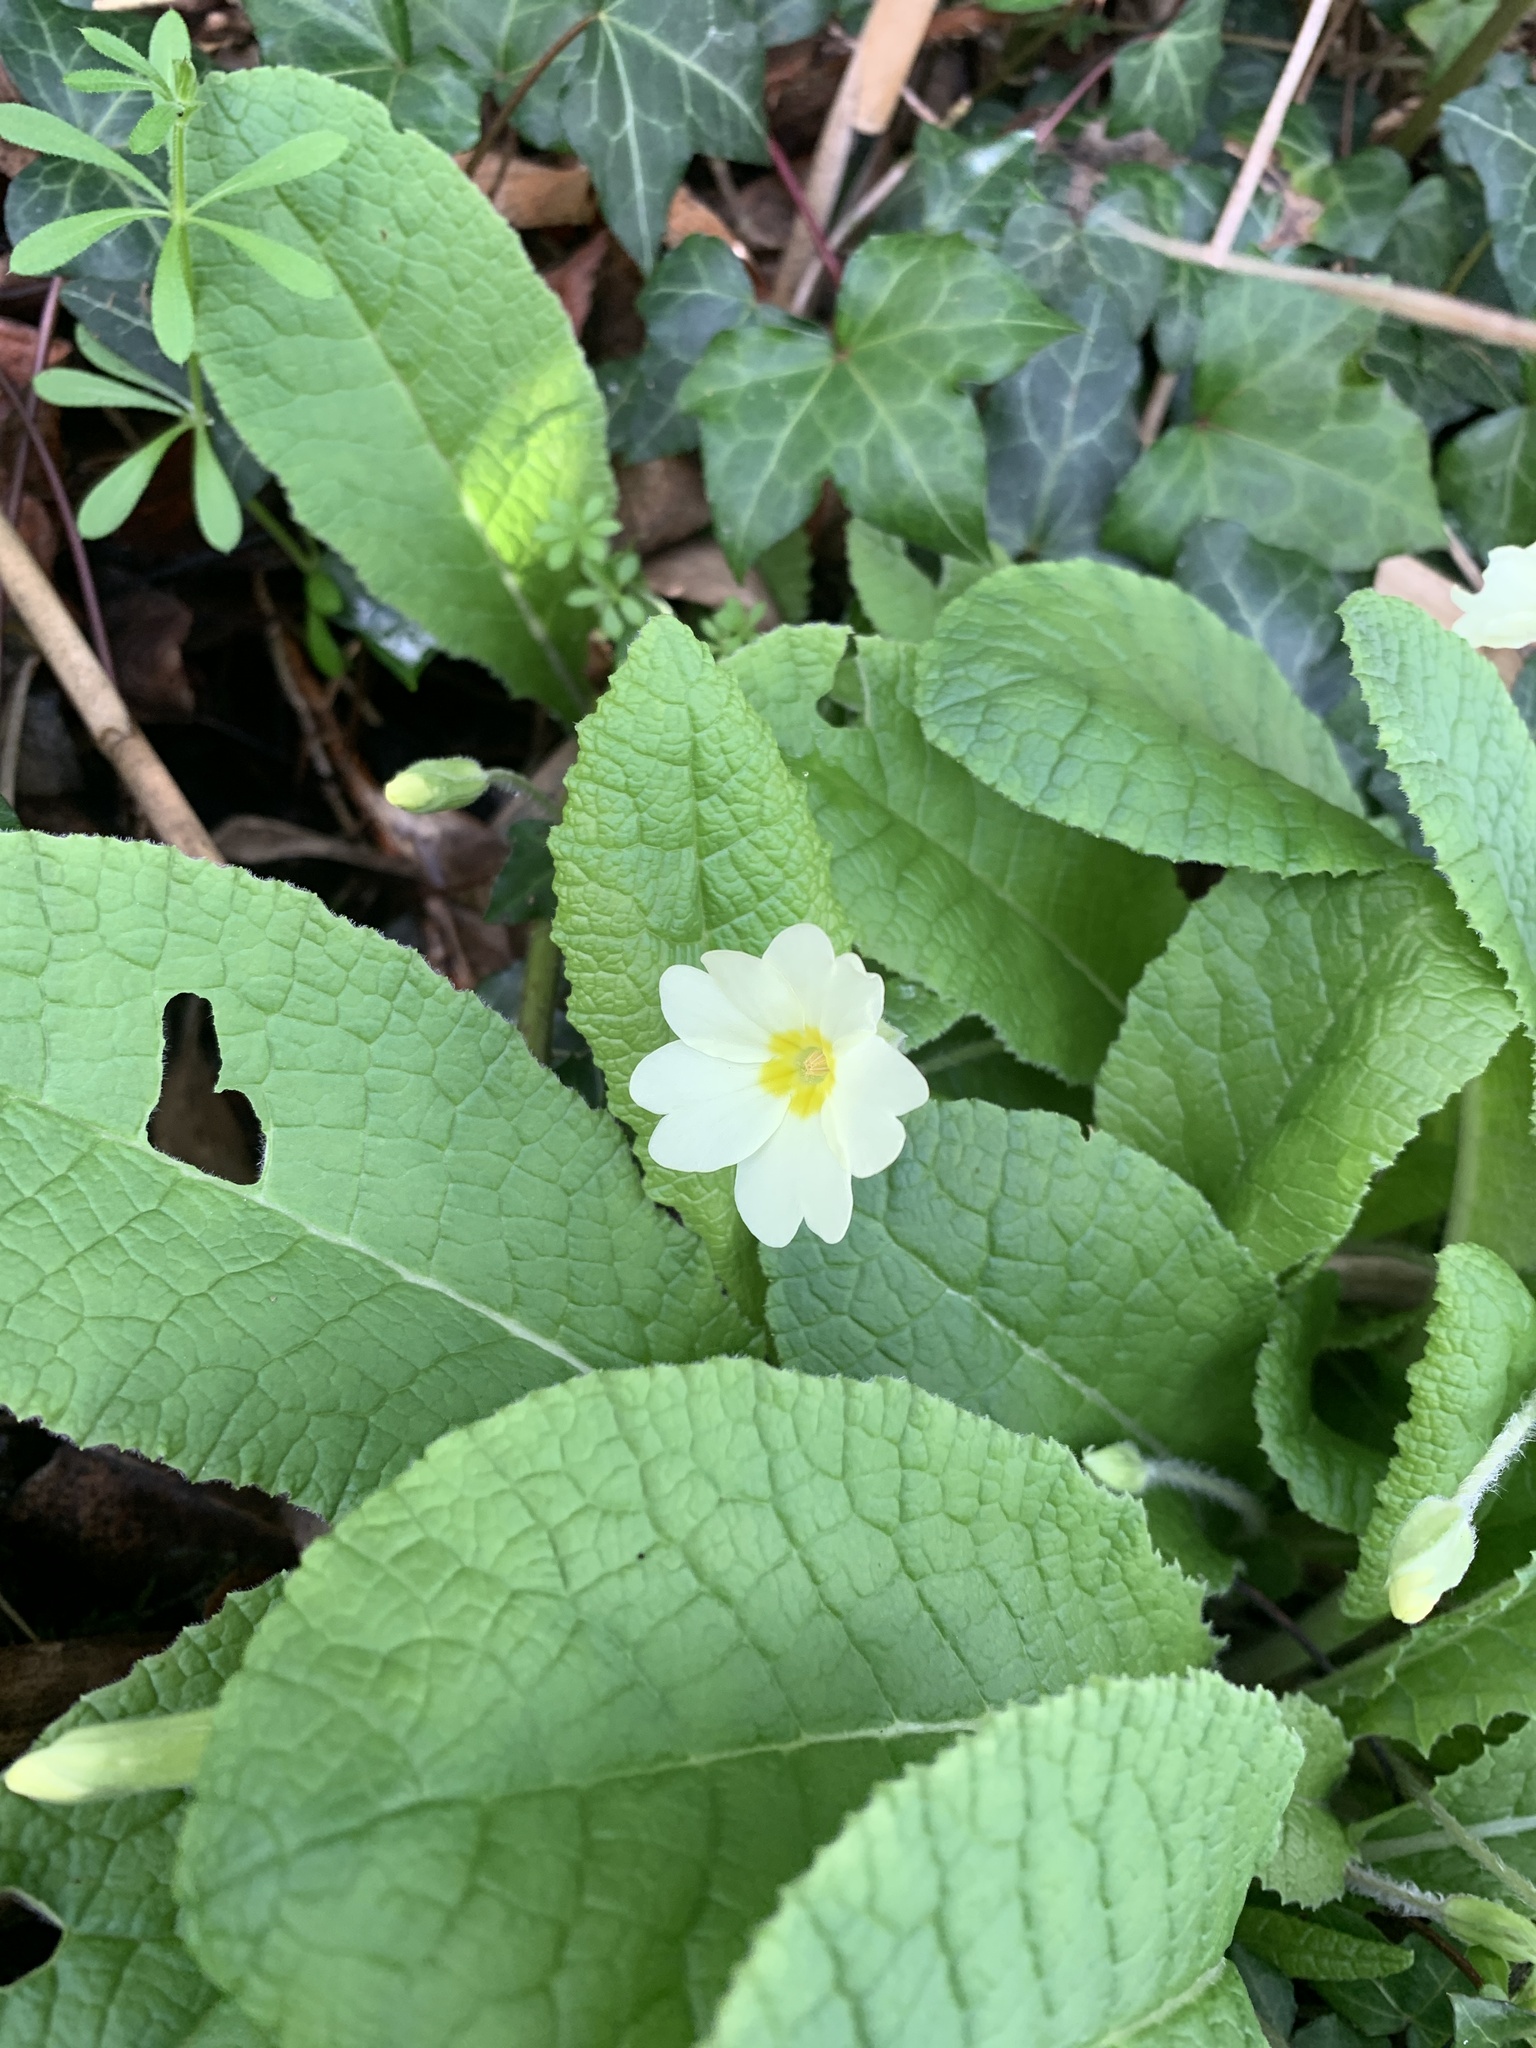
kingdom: Plantae
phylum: Tracheophyta
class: Magnoliopsida
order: Ericales
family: Primulaceae
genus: Primula
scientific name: Primula vulgaris
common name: Primrose
